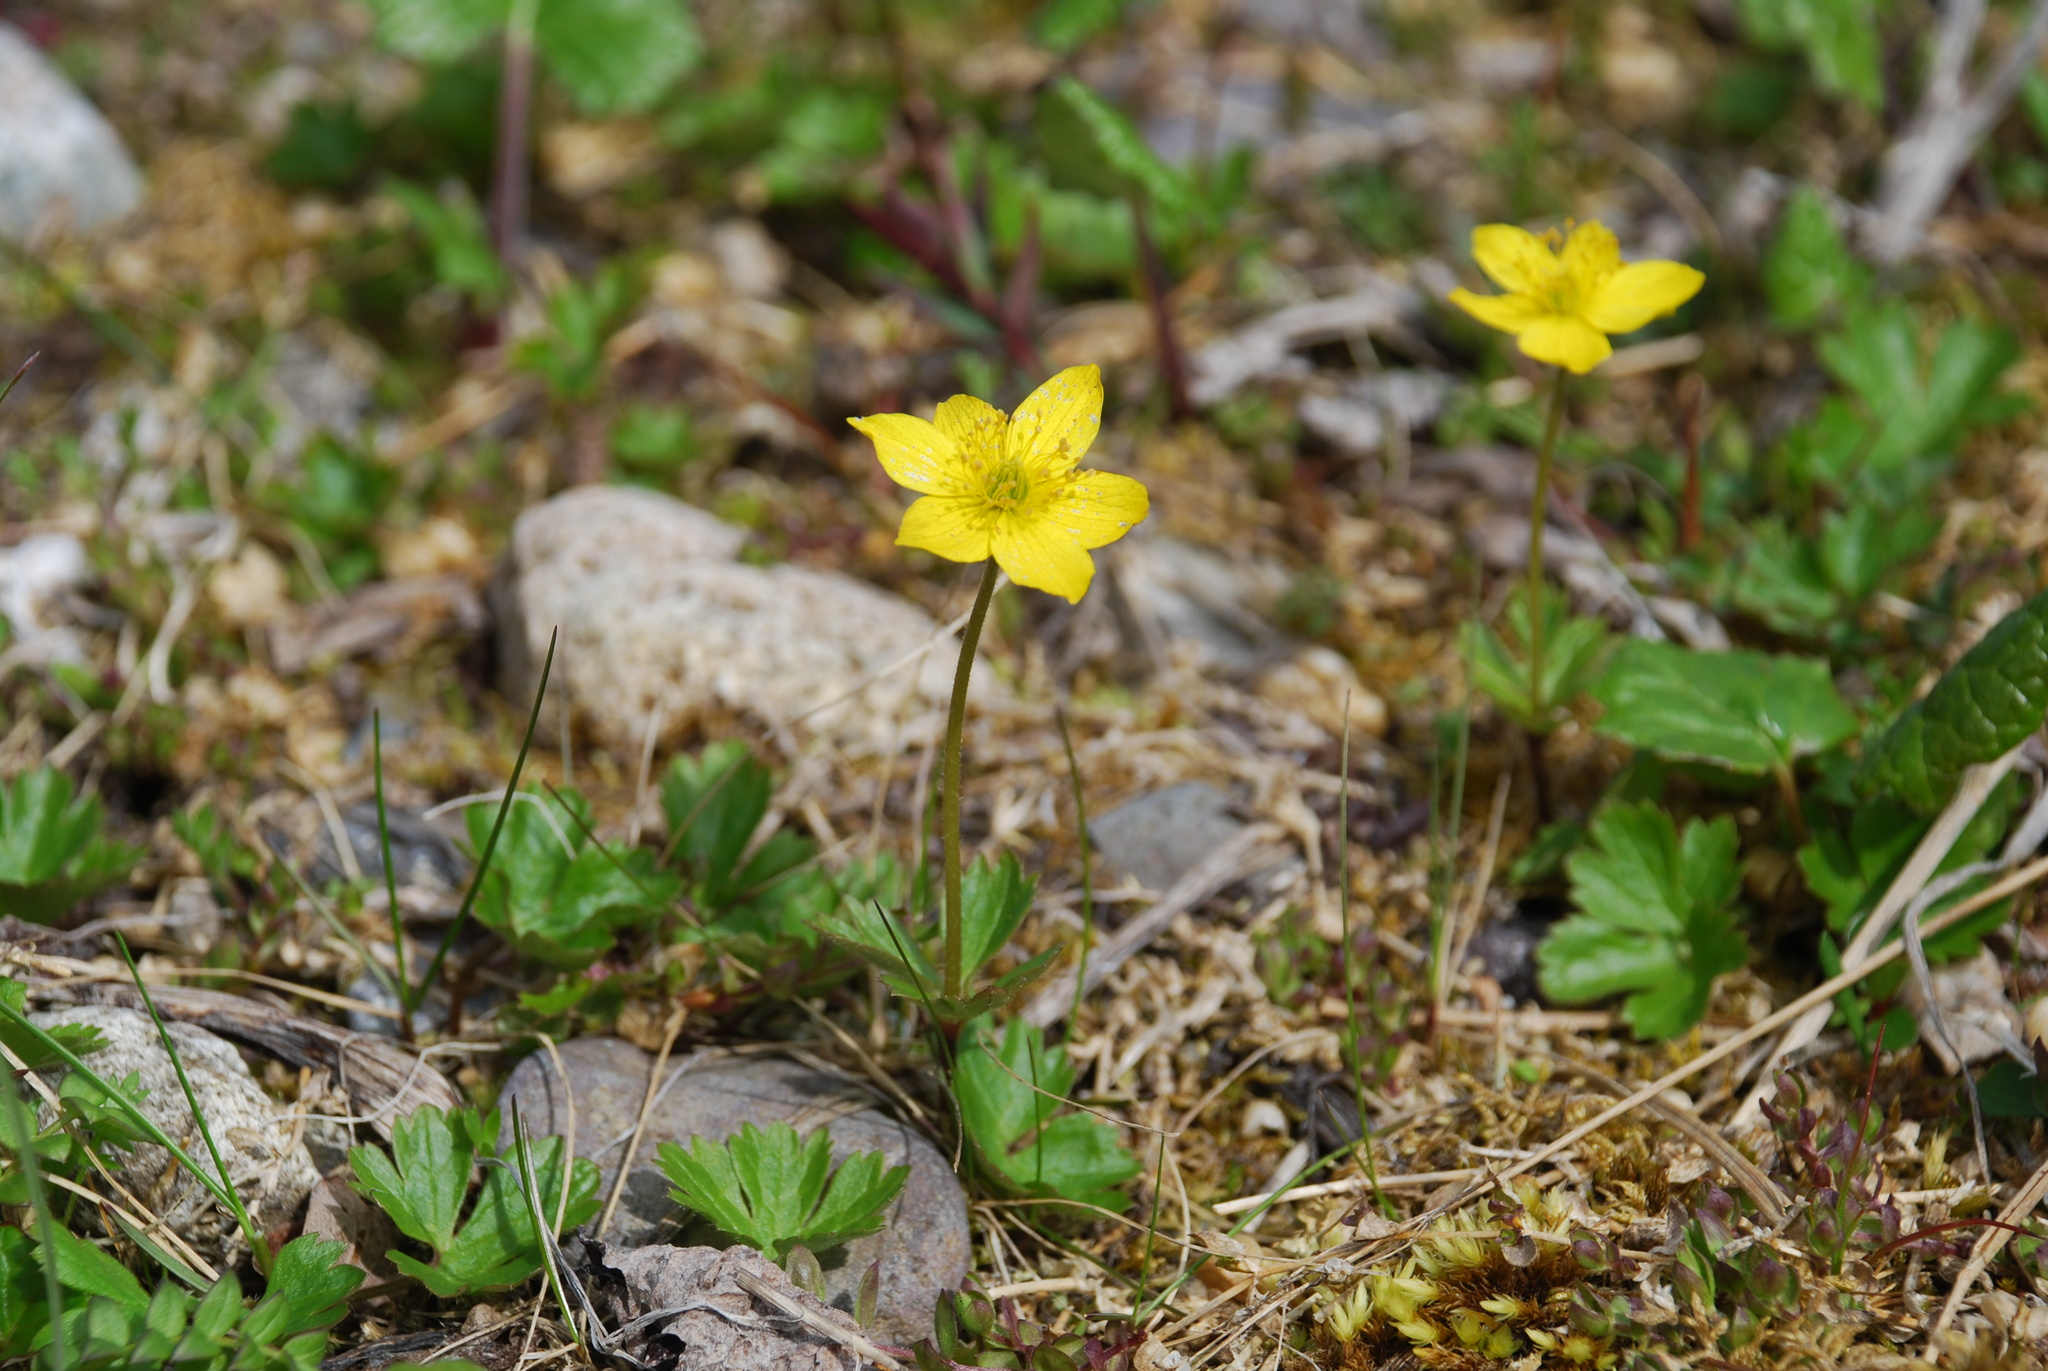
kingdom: Plantae
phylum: Tracheophyta
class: Magnoliopsida
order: Ranunculales
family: Ranunculaceae
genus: Anemonastrum
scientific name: Anemonastrum richardsonii
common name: Richardson's anemone
